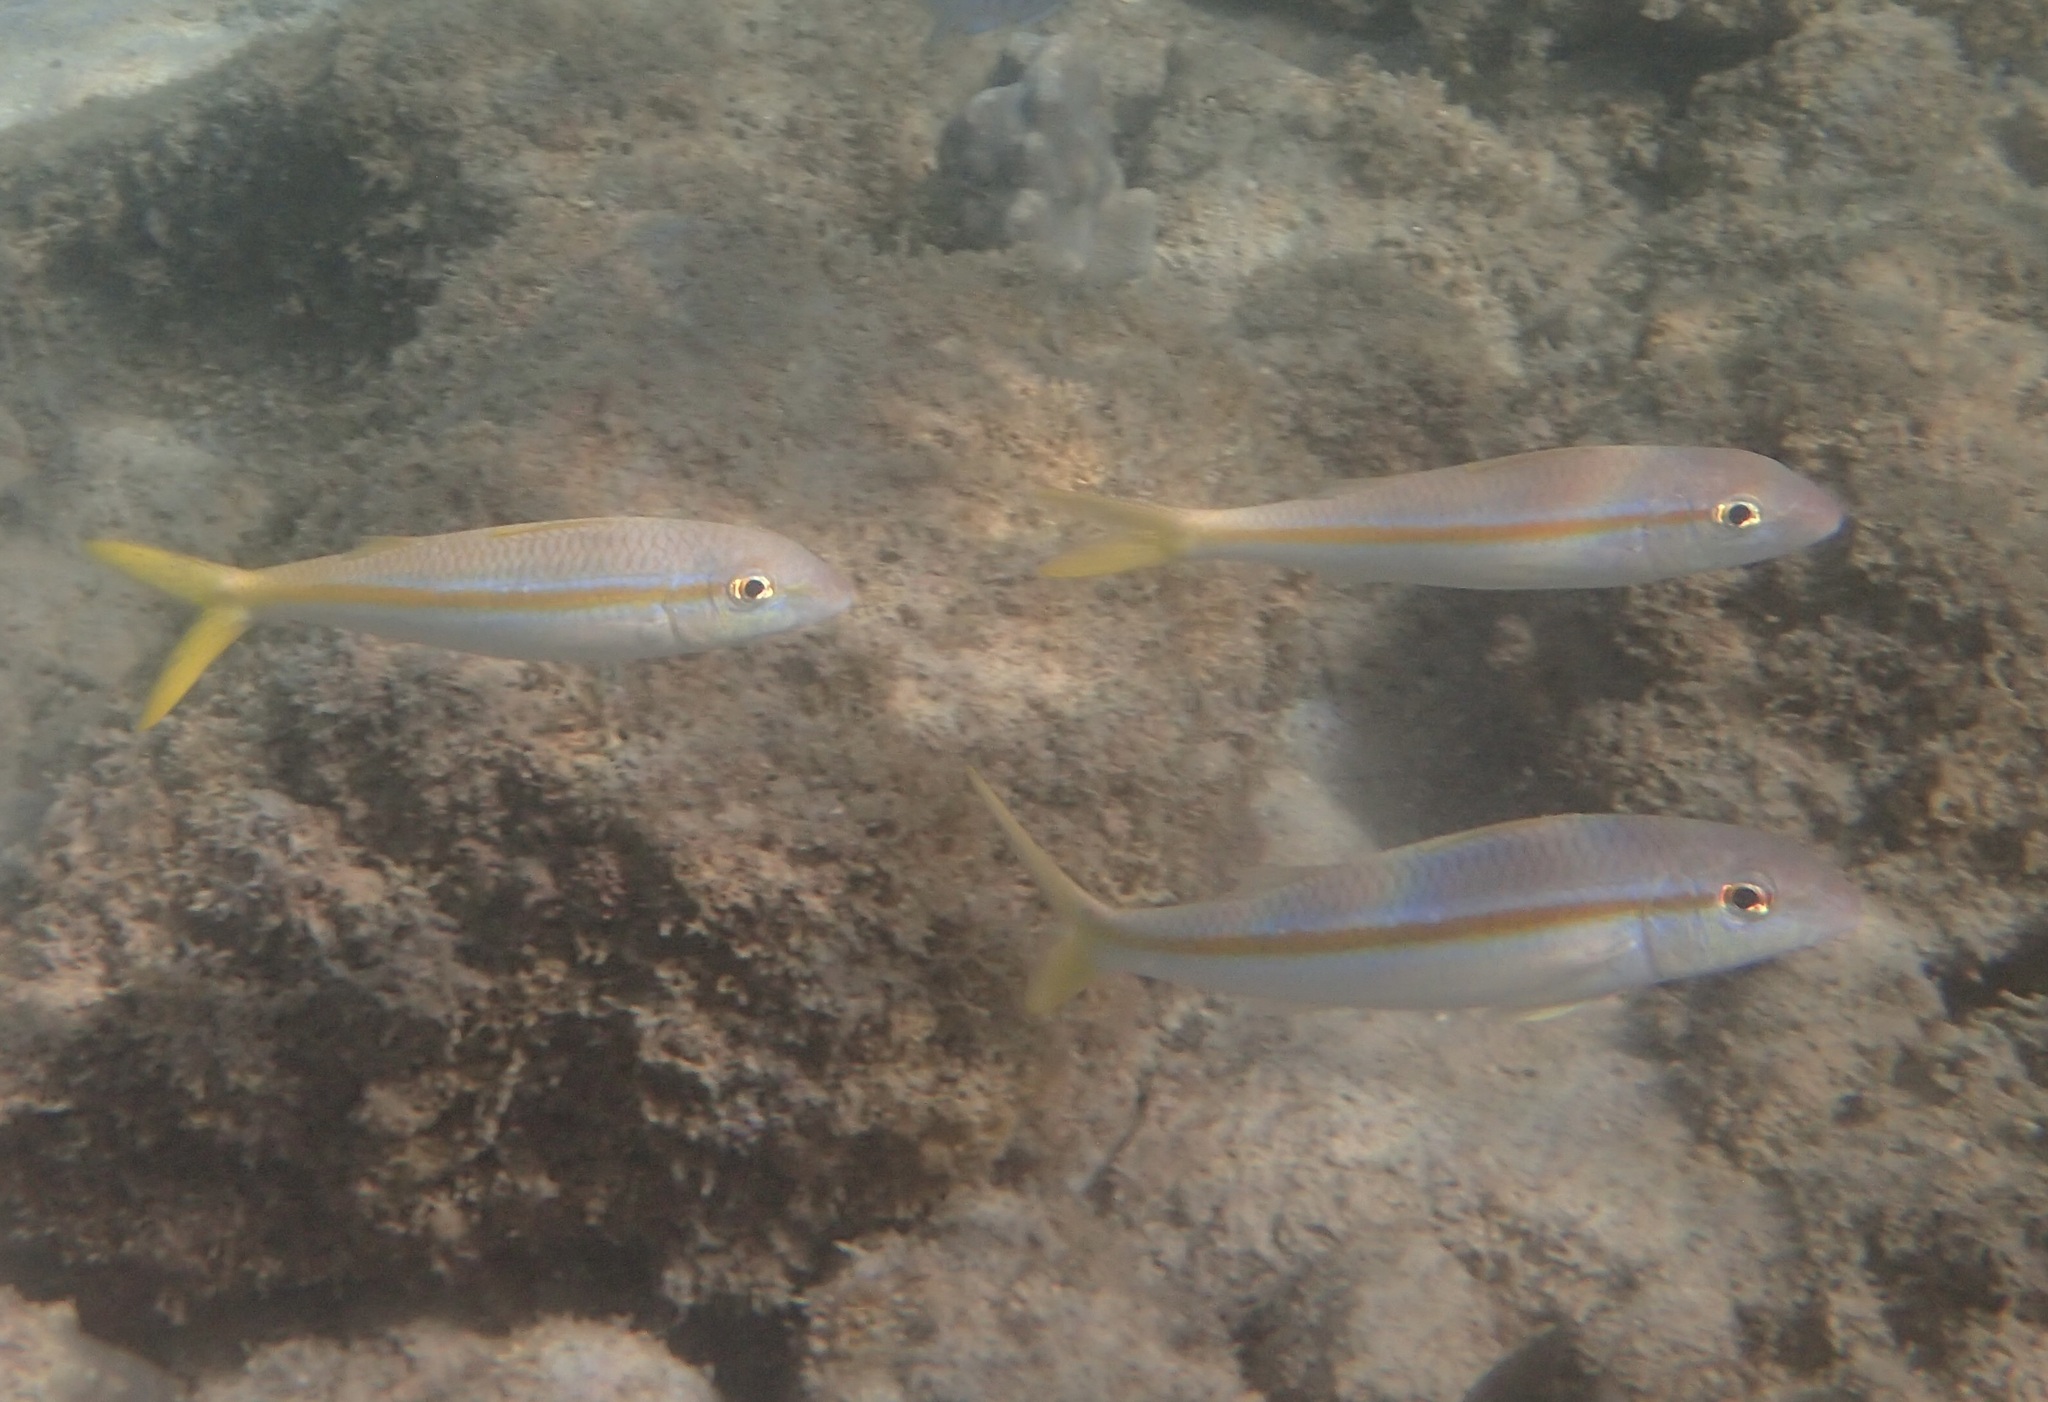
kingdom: Animalia
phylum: Chordata
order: Perciformes
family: Mullidae
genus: Mulloidichthys
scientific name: Mulloidichthys dentatus
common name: Mexican goatfish
